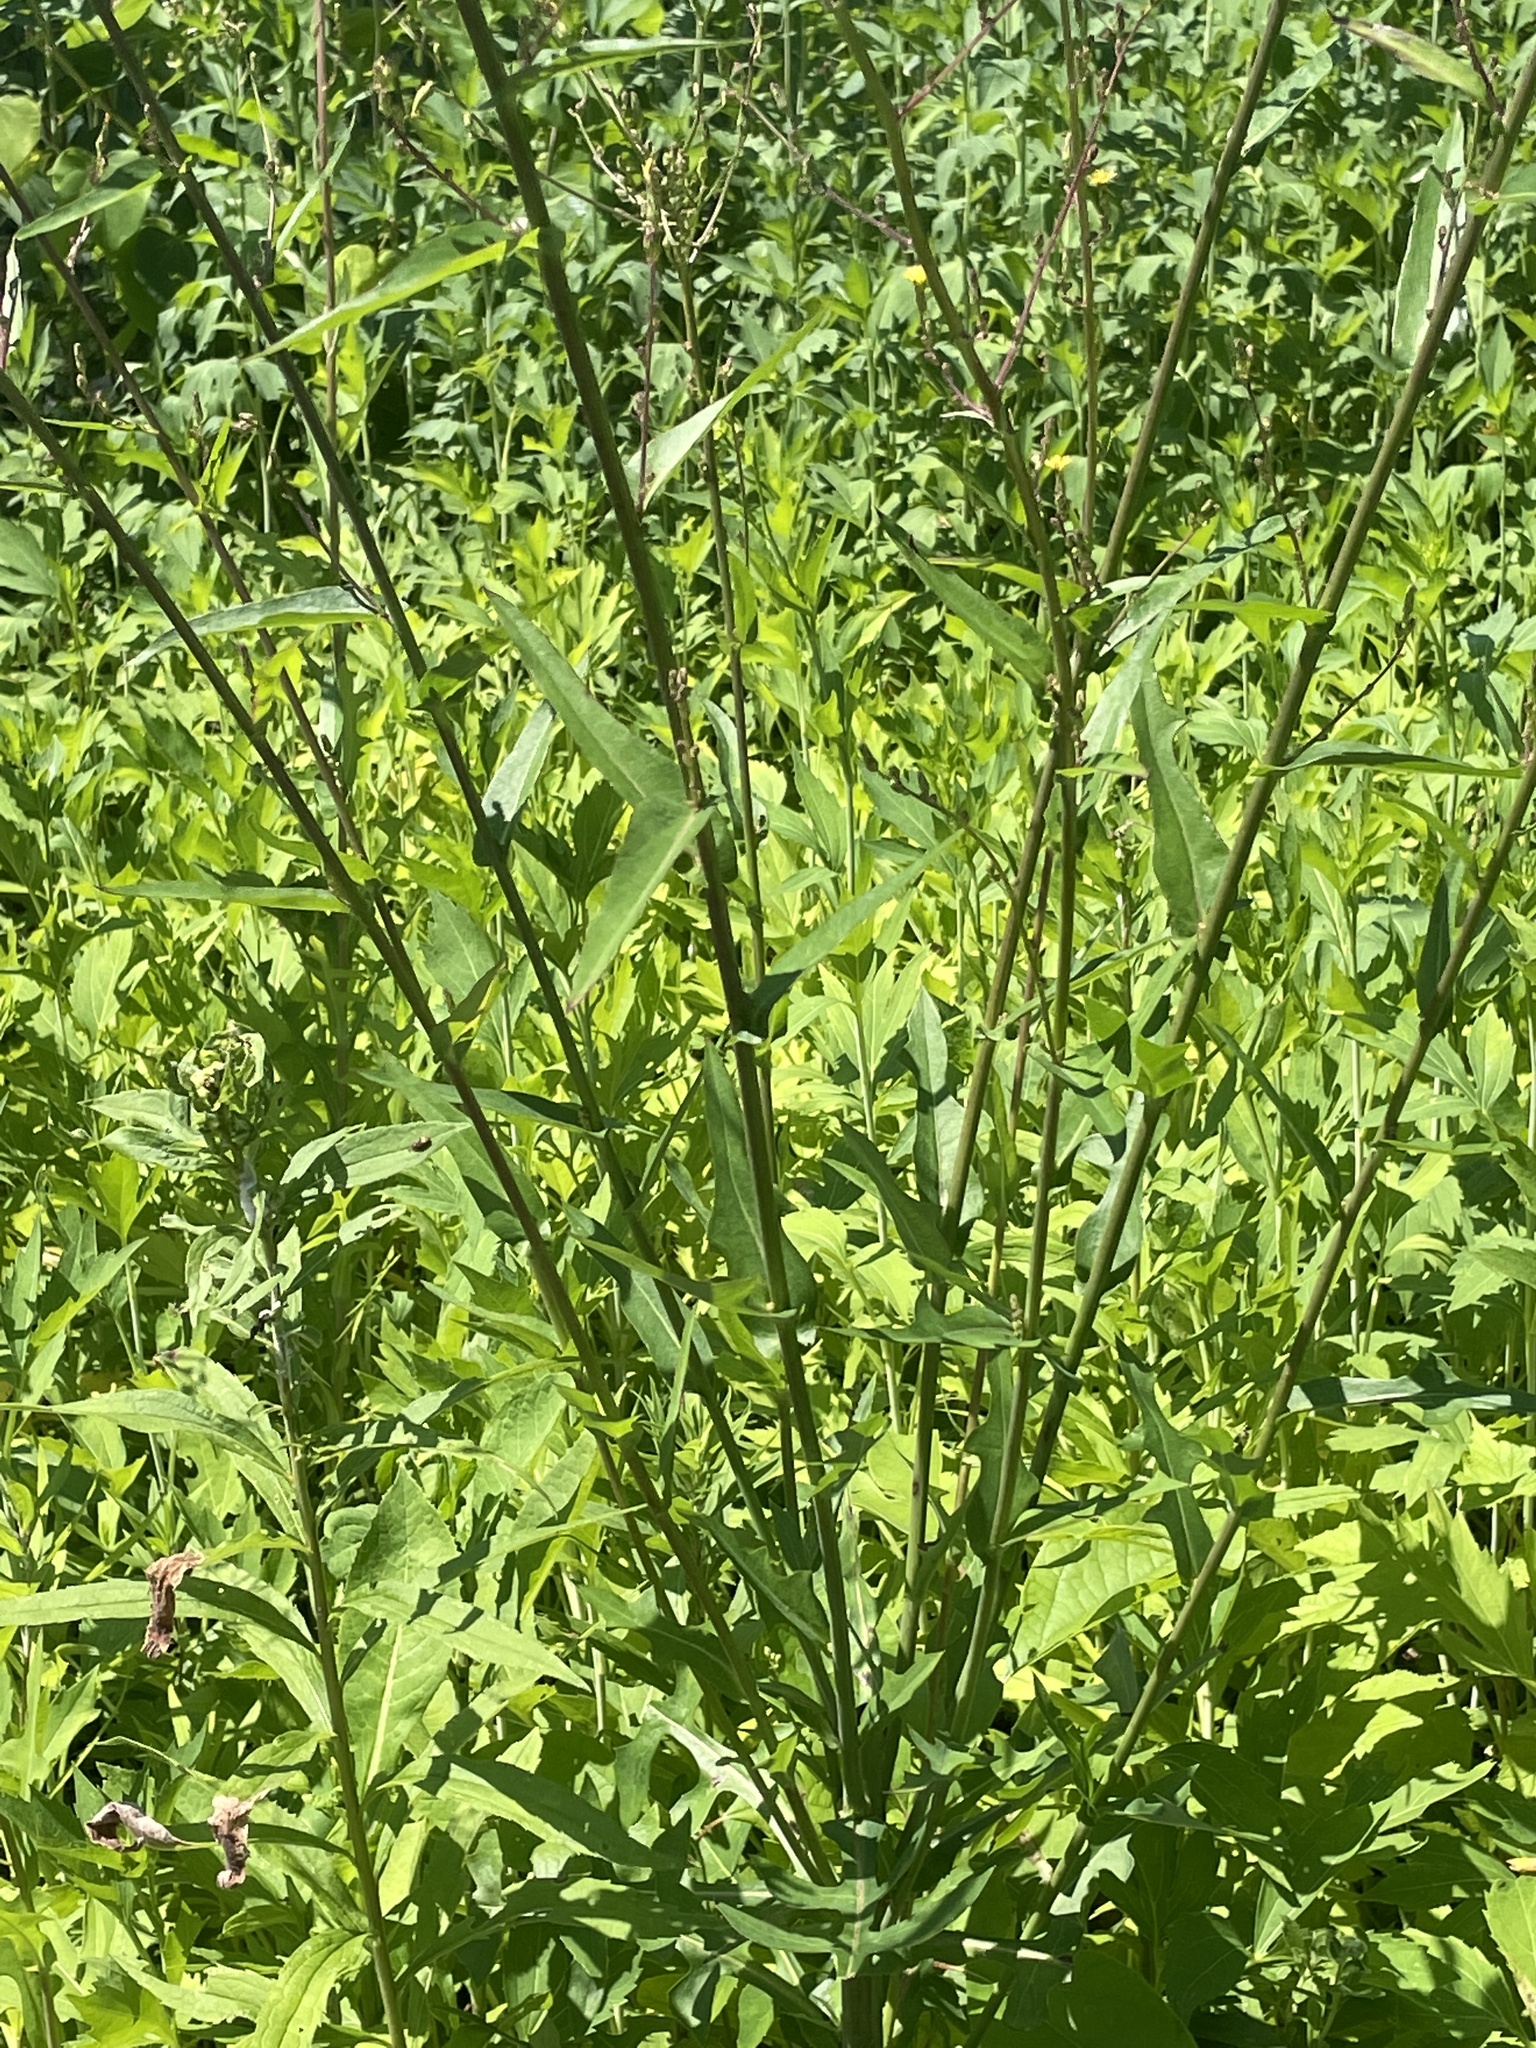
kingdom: Plantae
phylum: Tracheophyta
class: Magnoliopsida
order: Asterales
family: Asteraceae
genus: Lactuca
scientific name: Lactuca canadensis
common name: Canada lettuce
